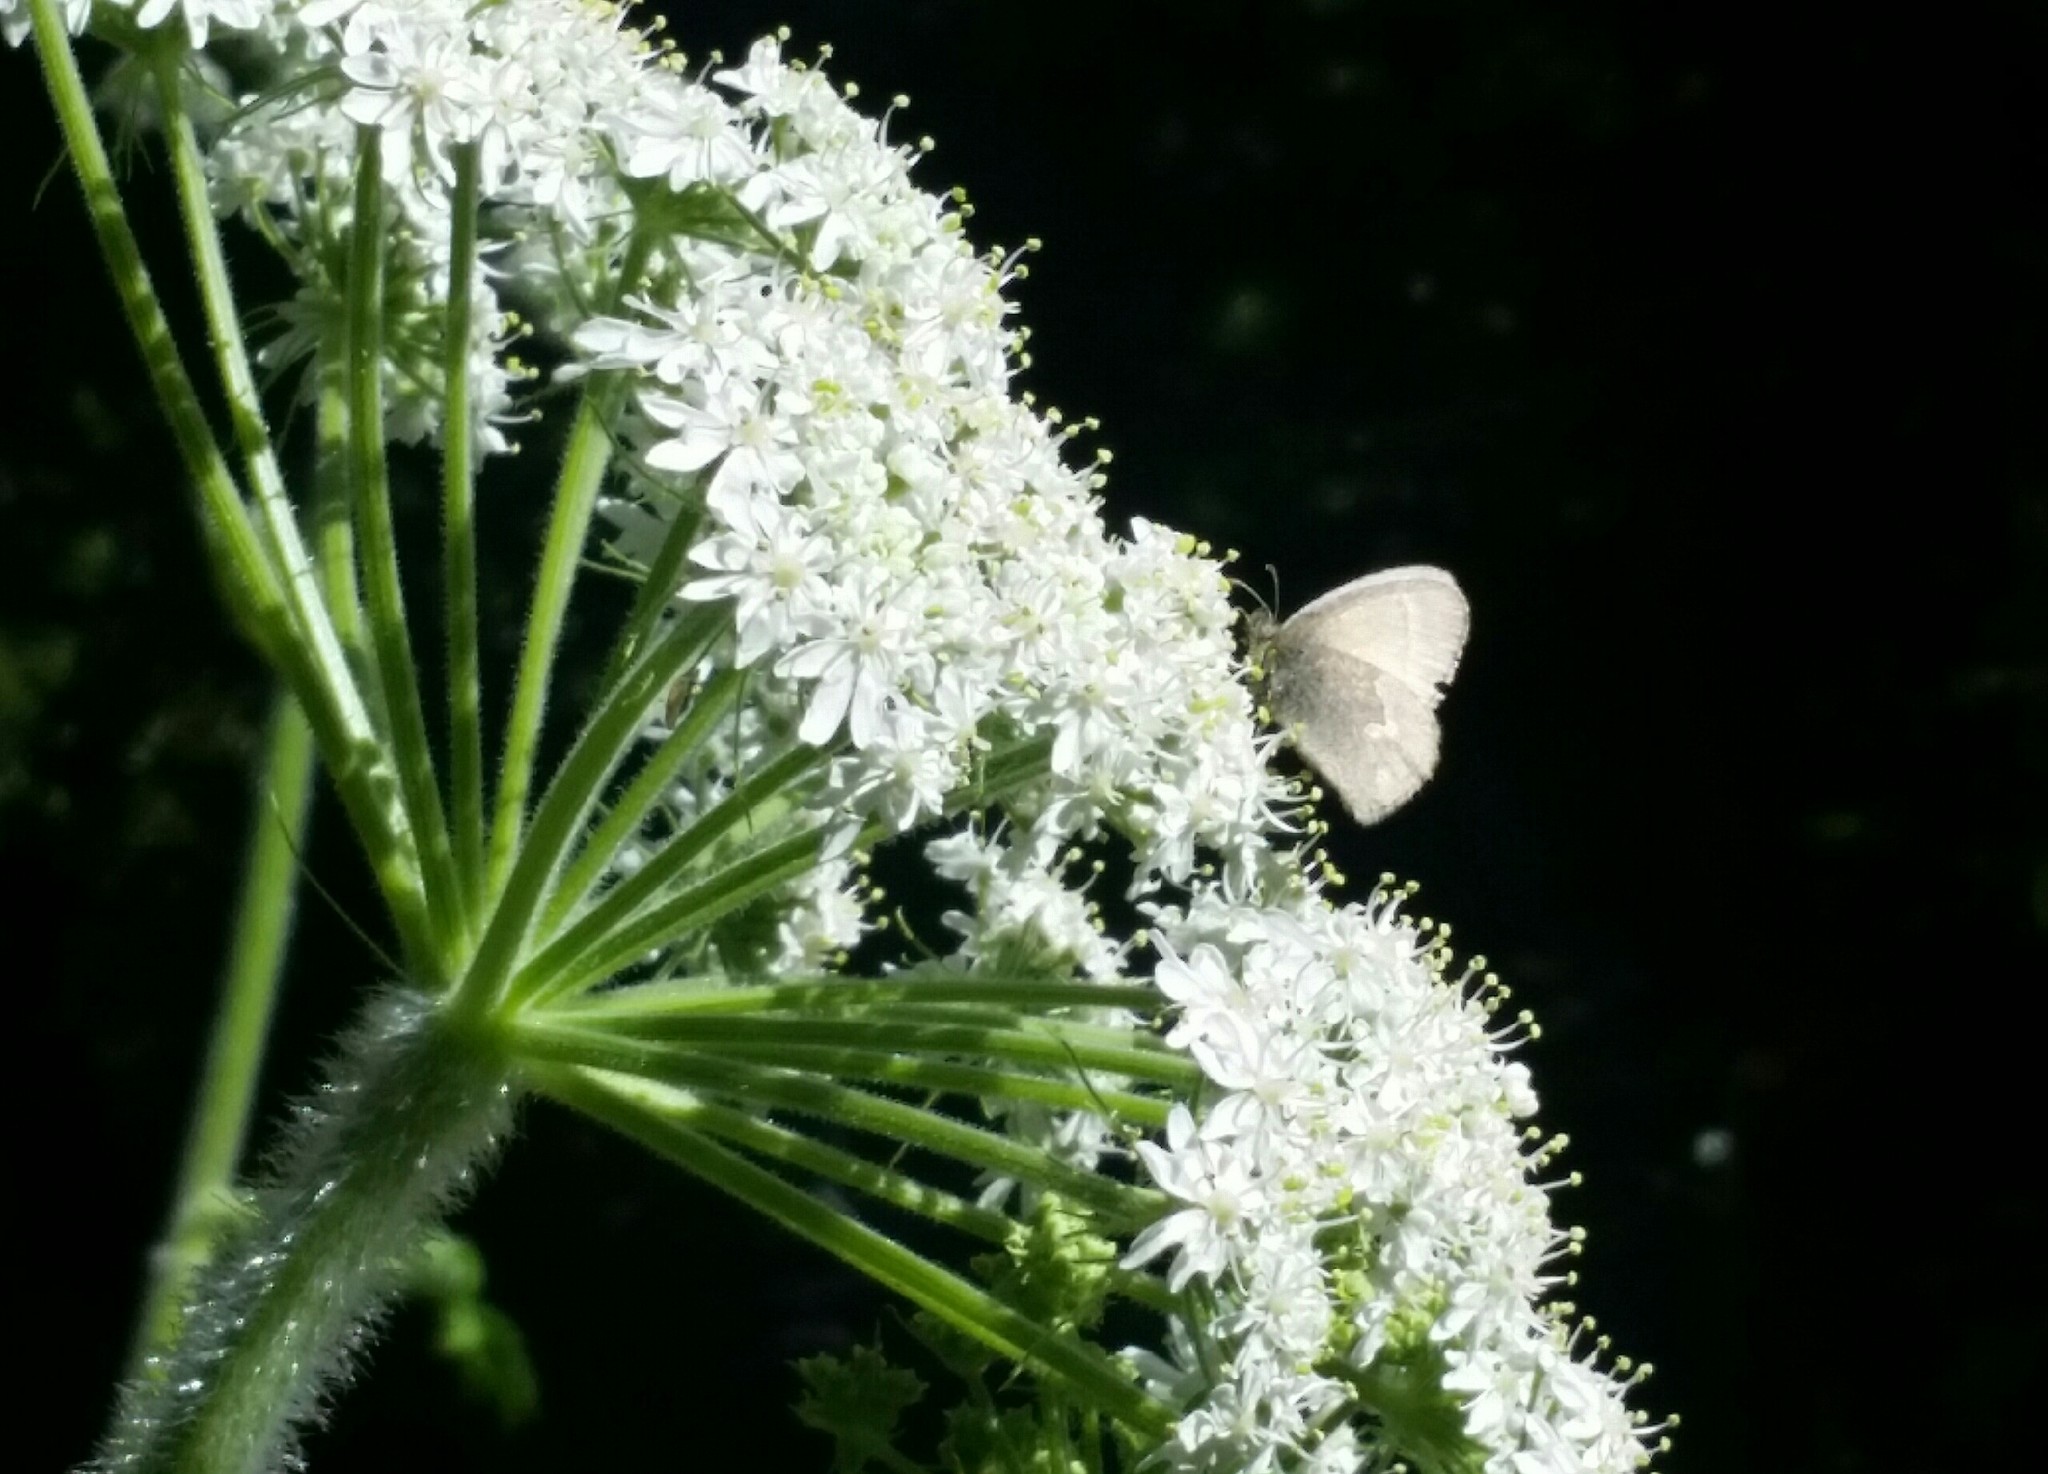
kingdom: Plantae
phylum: Tracheophyta
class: Magnoliopsida
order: Apiales
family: Apiaceae
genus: Heracleum
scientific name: Heracleum maximum
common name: American cow parsnip
